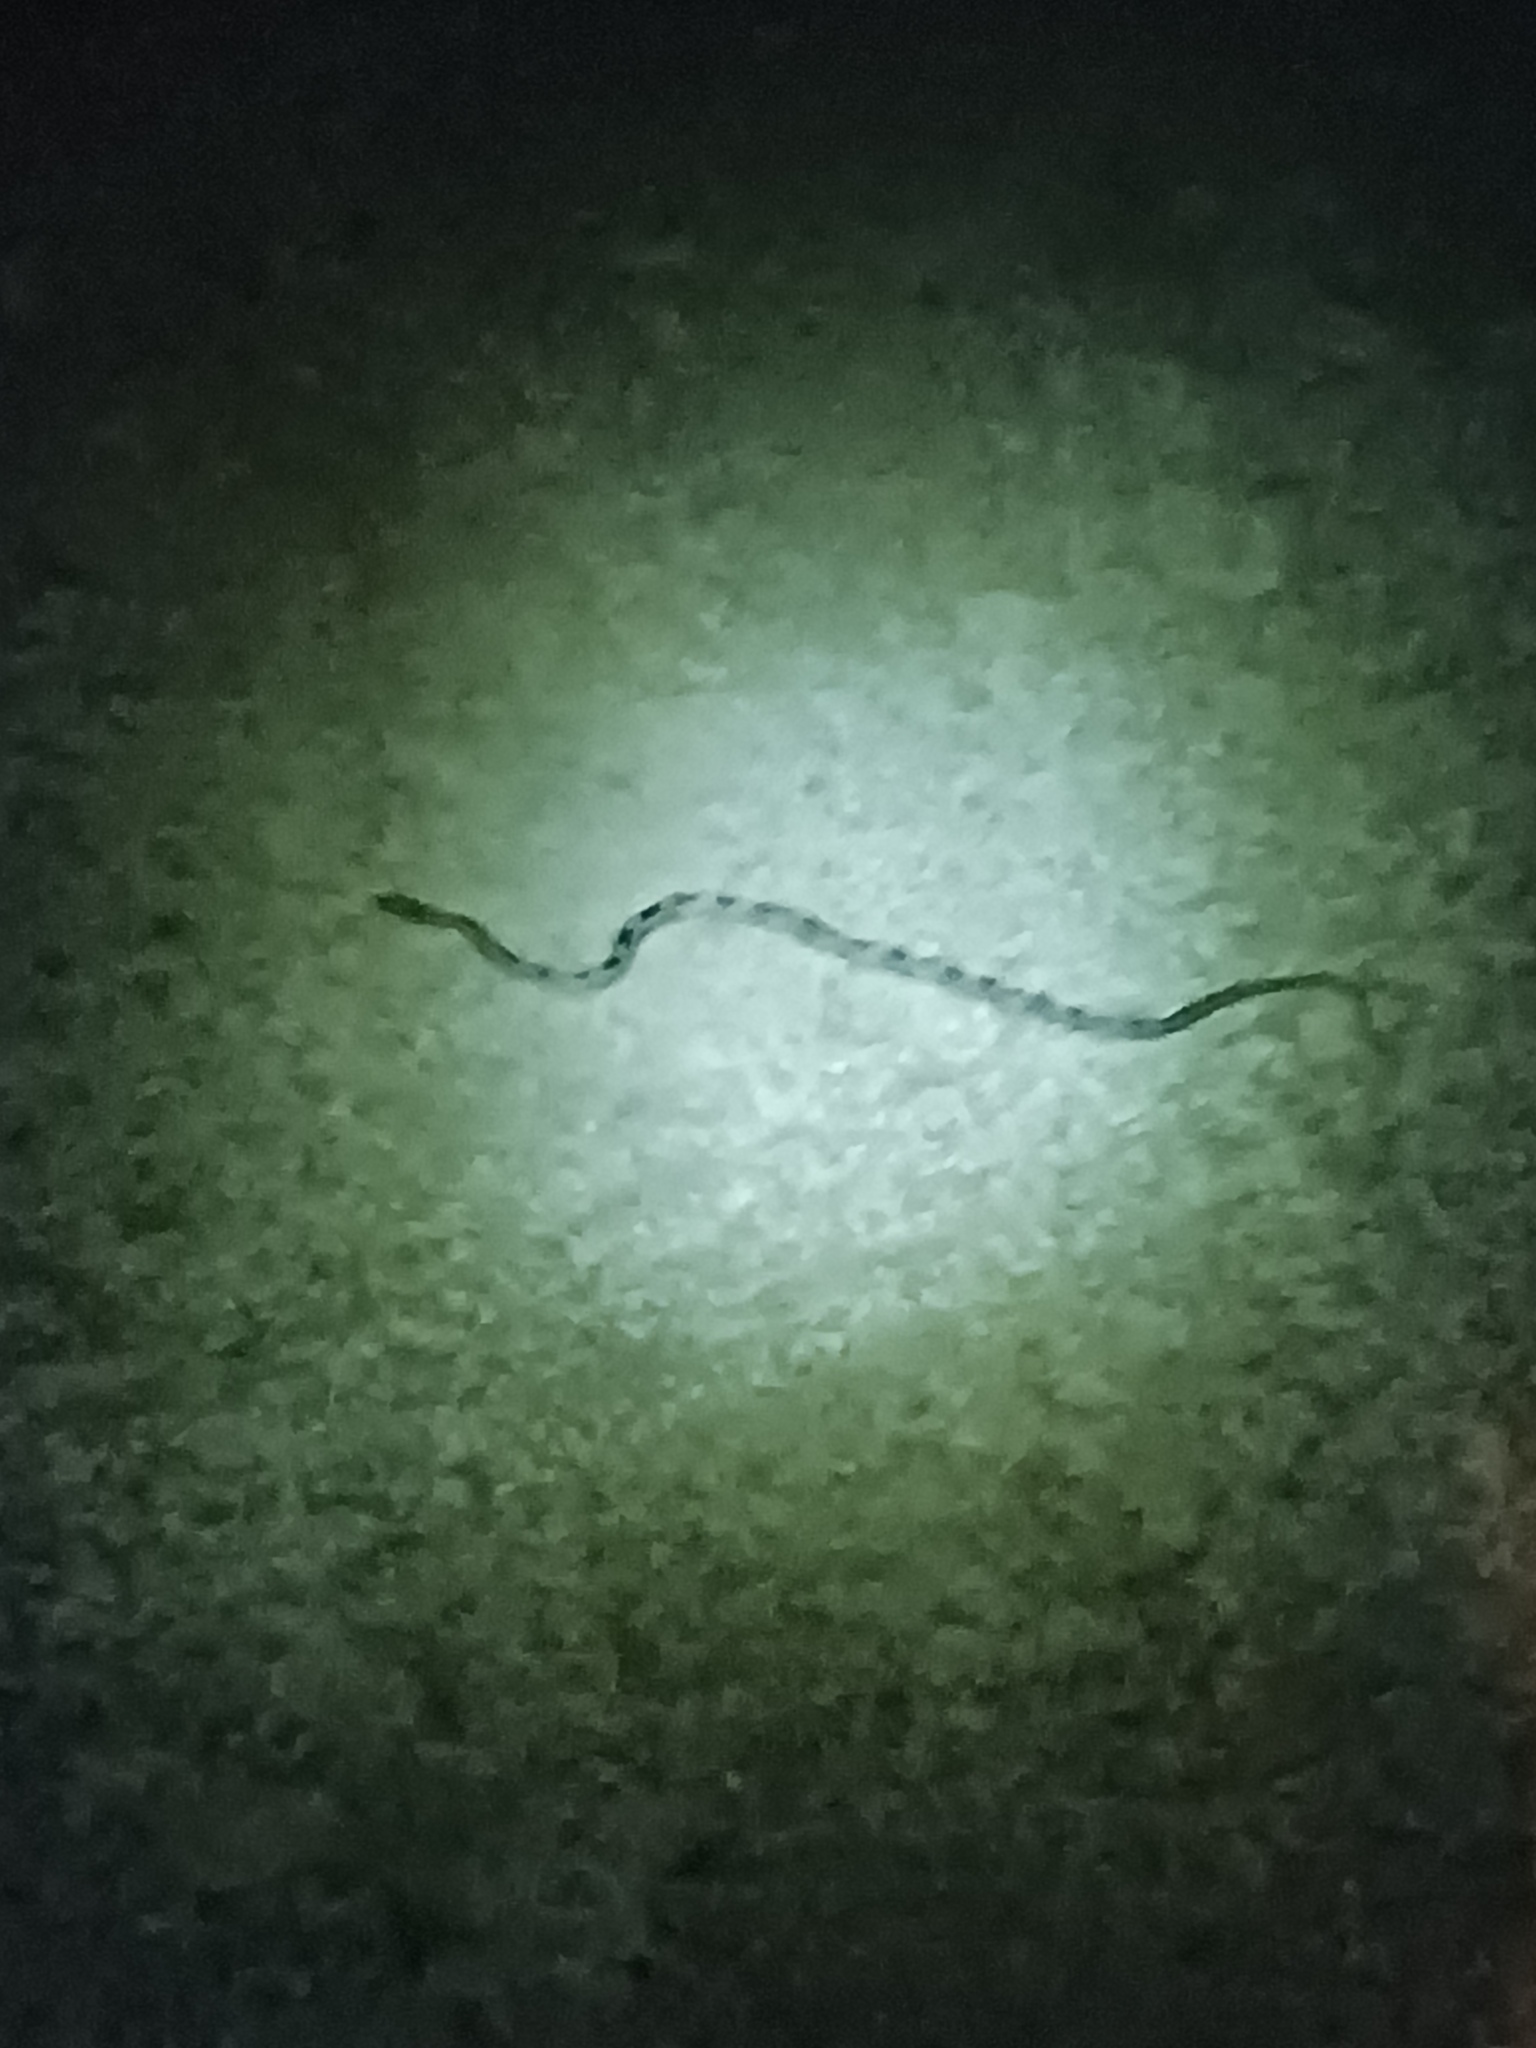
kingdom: Animalia
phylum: Chordata
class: Squamata
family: Colubridae
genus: Pantherophis
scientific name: Pantherophis
